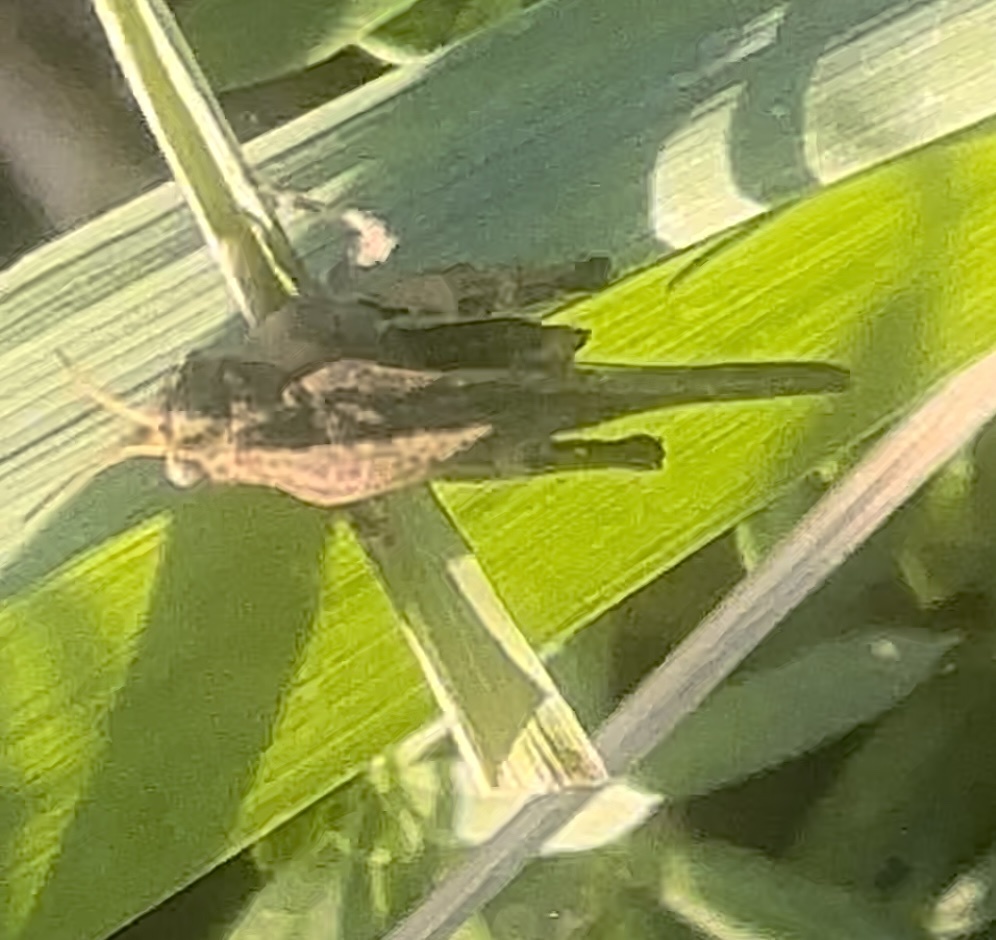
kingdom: Animalia
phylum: Arthropoda
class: Insecta
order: Orthoptera
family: Tetrigidae
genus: Tetrix
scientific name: Tetrix subulata
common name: Slender ground-hopper
